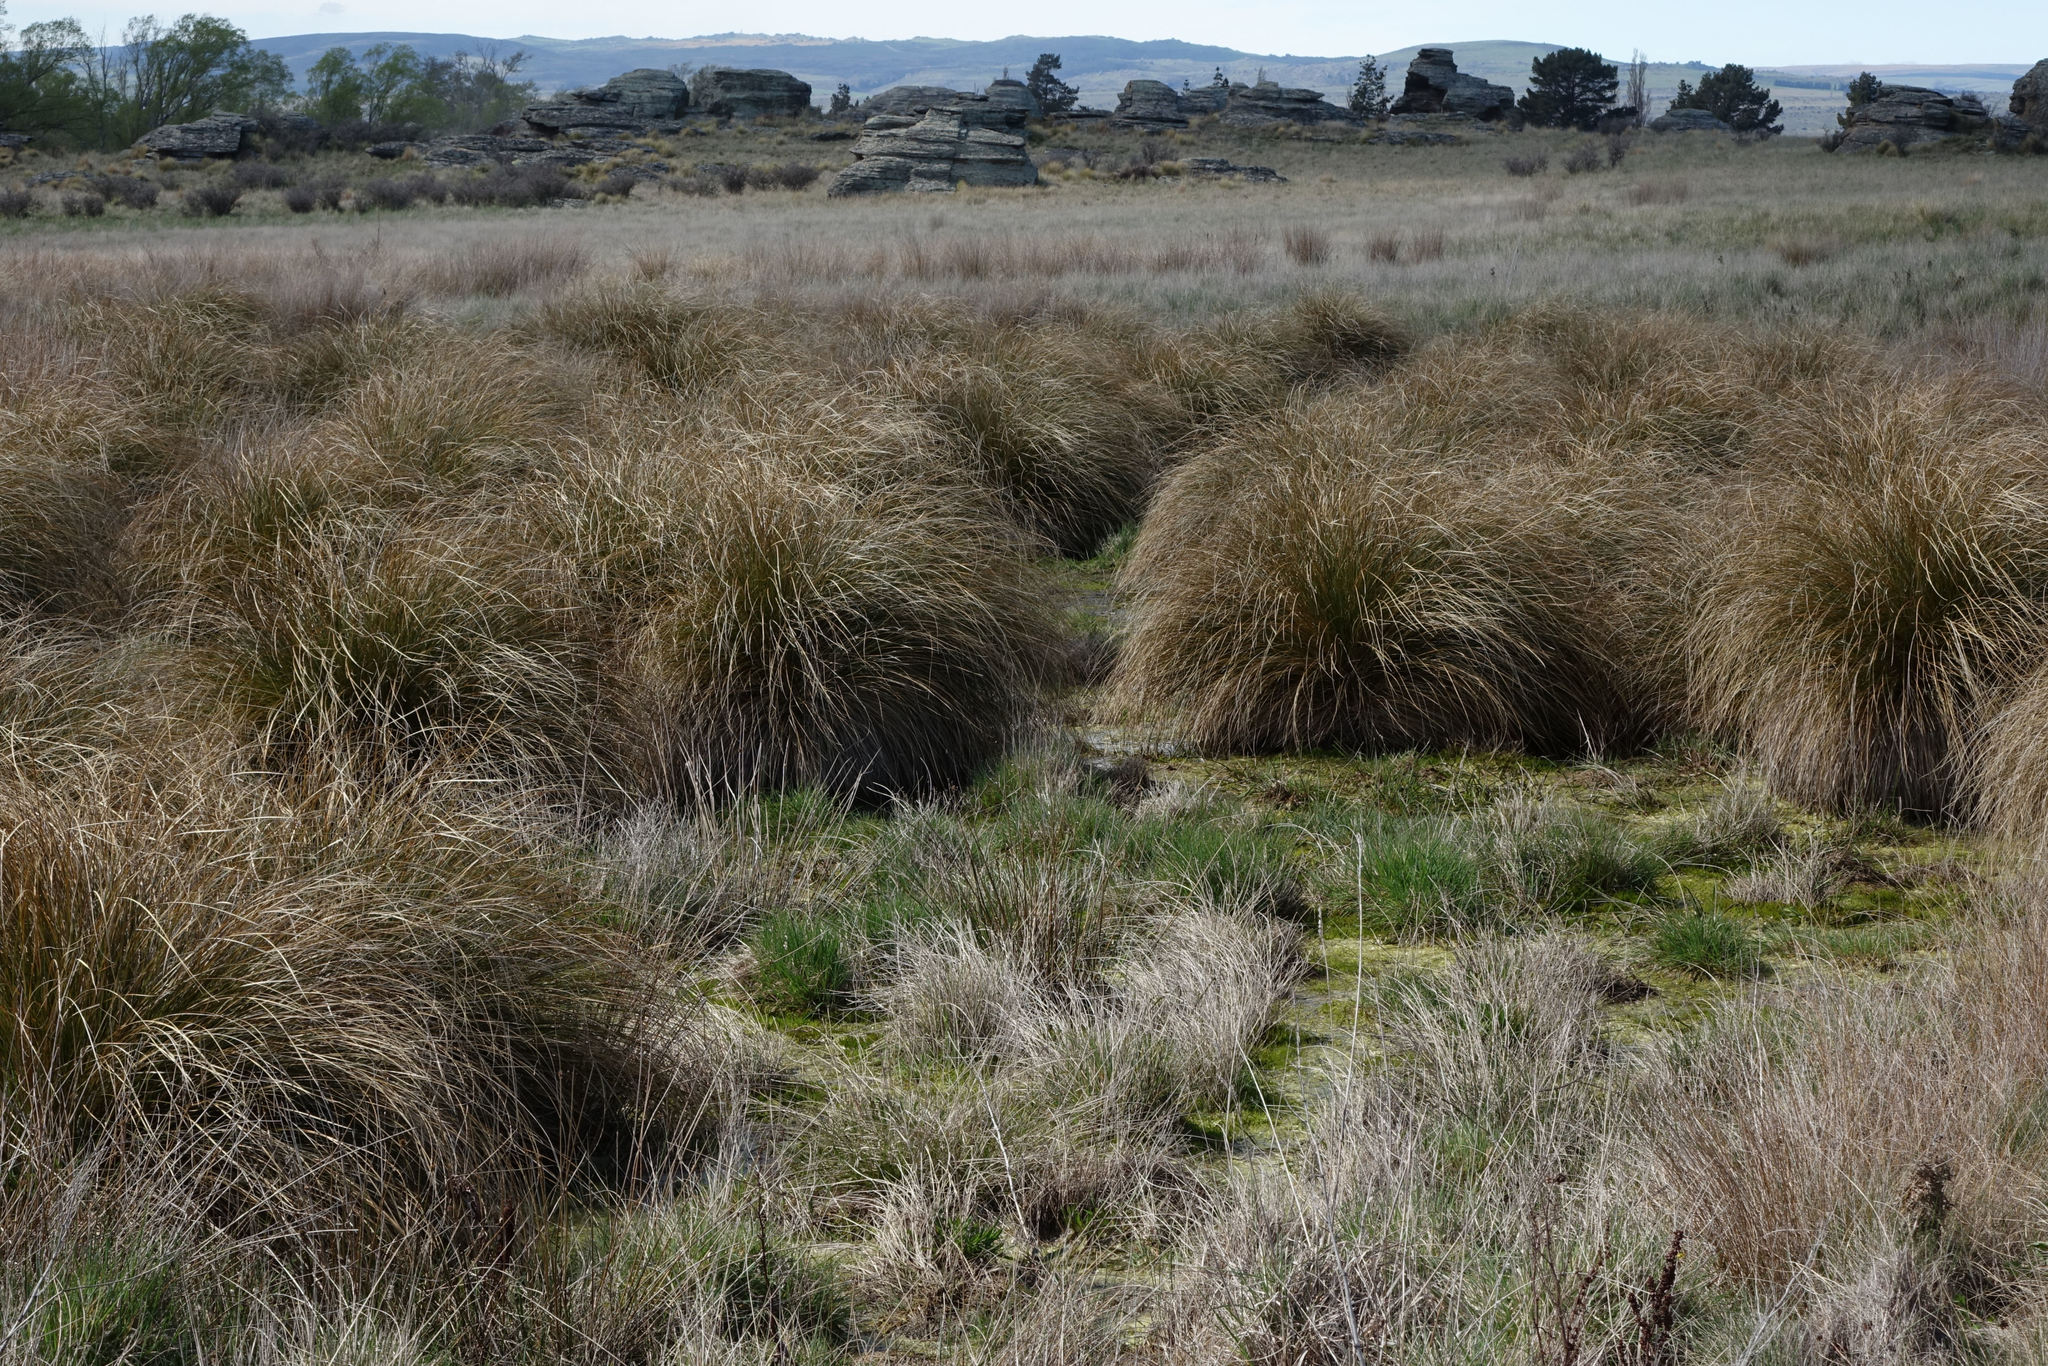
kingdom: Plantae
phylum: Tracheophyta
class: Liliopsida
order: Poales
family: Cyperaceae
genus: Carex
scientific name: Carex secta
